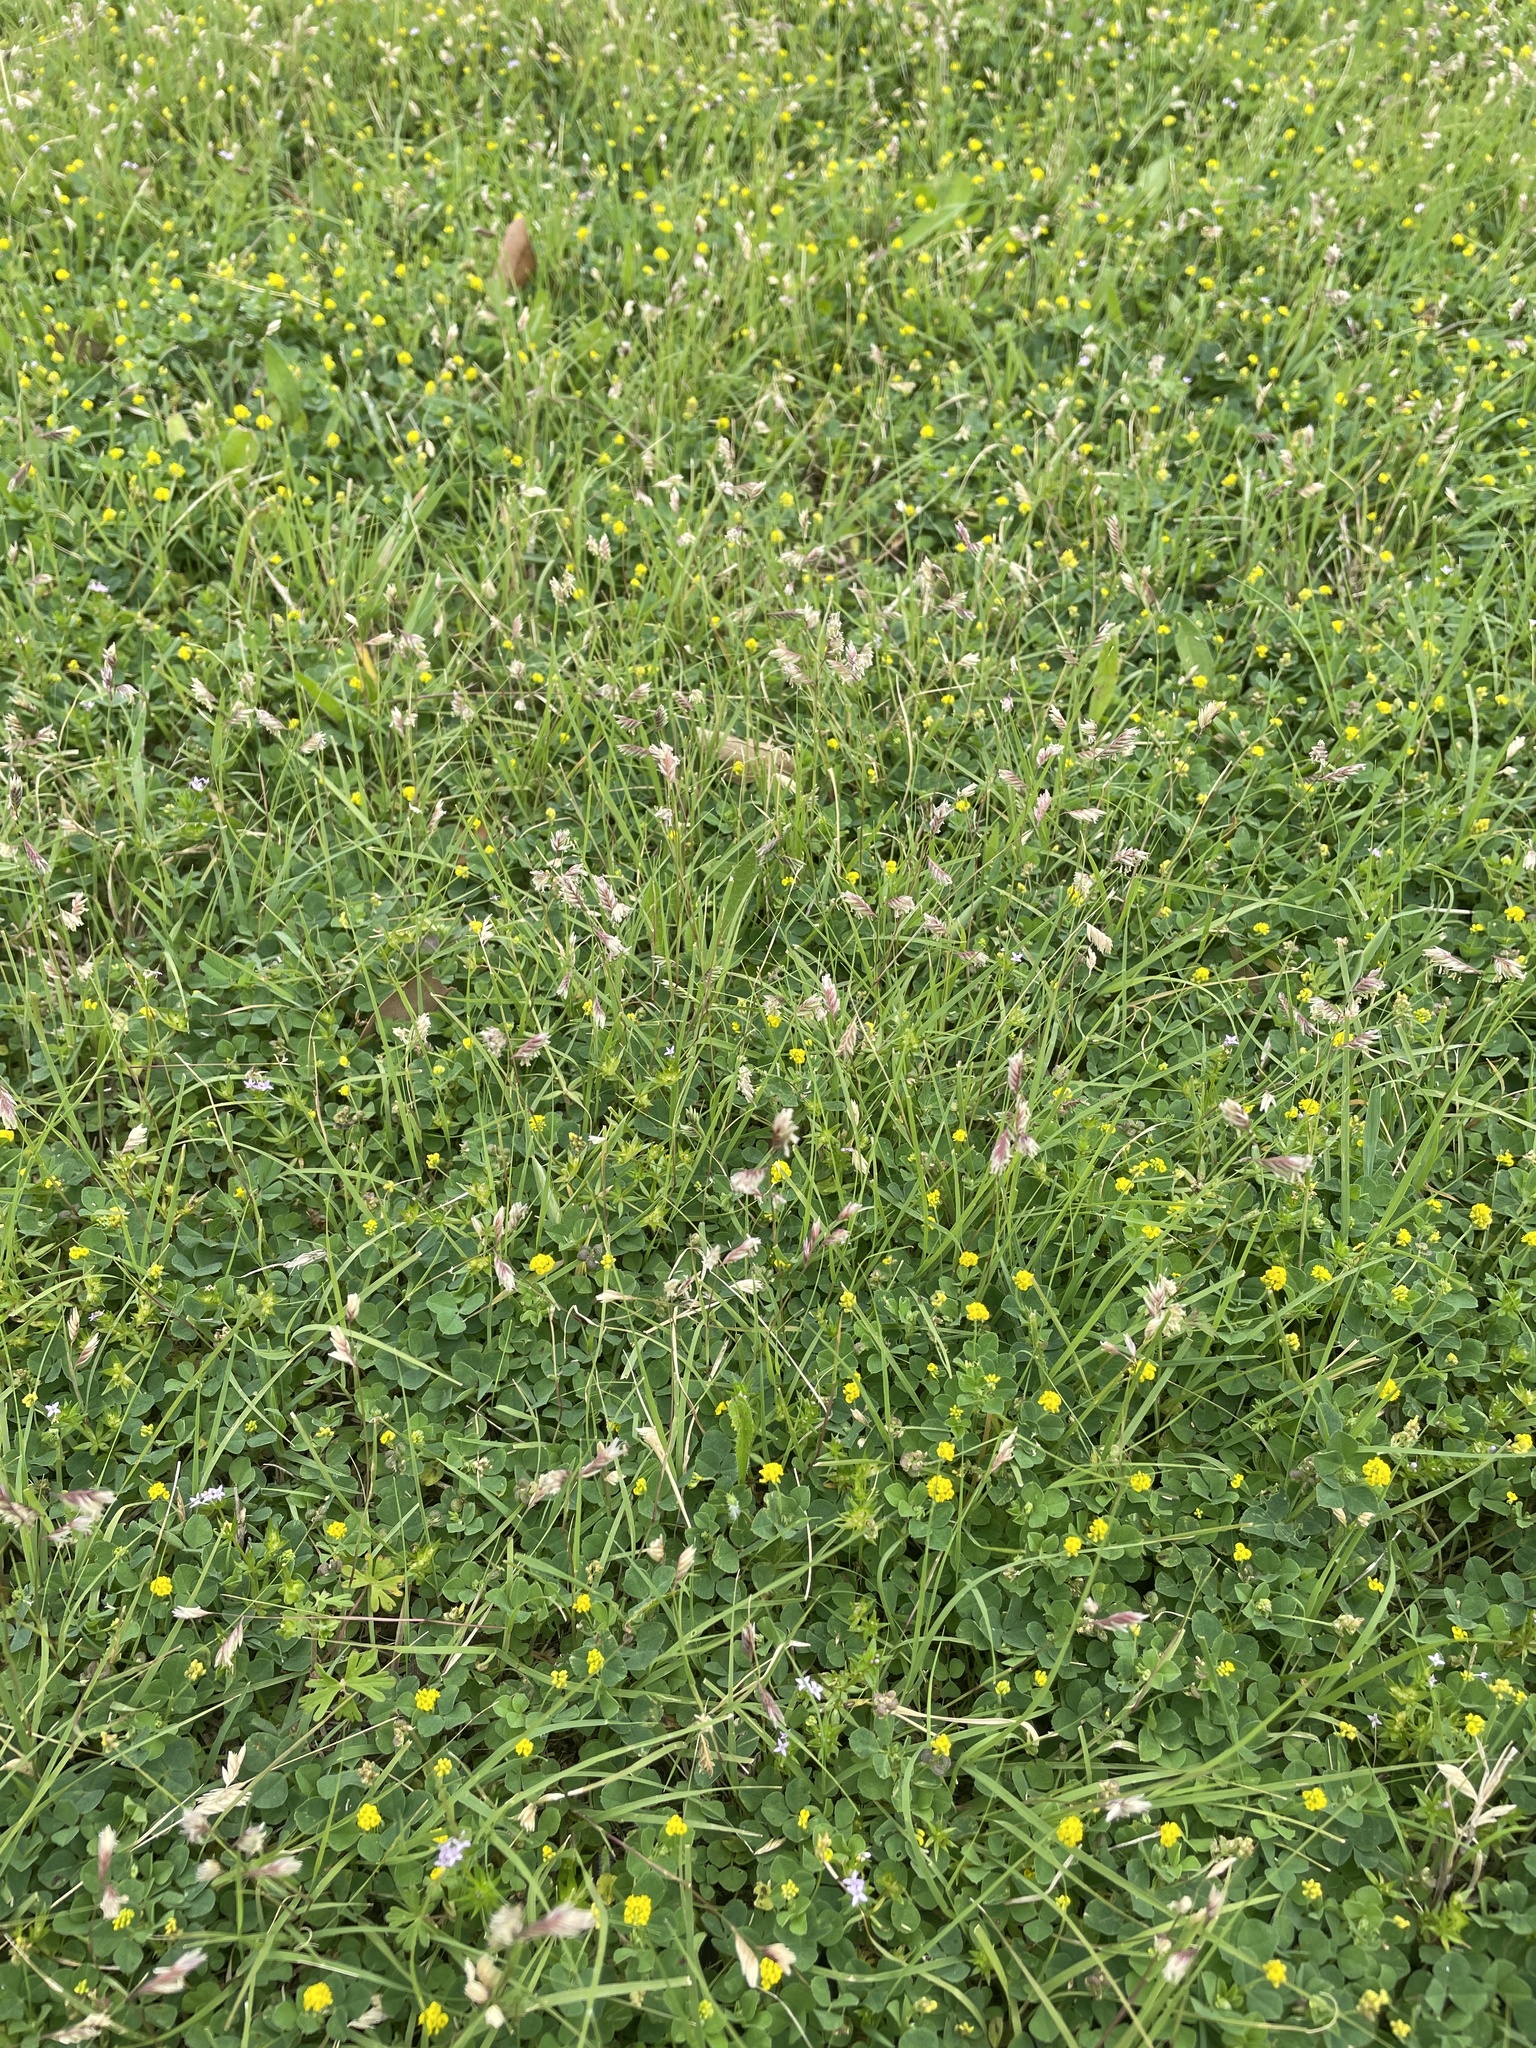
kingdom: Plantae
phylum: Tracheophyta
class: Liliopsida
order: Poales
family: Poaceae
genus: Bouteloua
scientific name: Bouteloua dactyloides
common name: Buffalo grass
